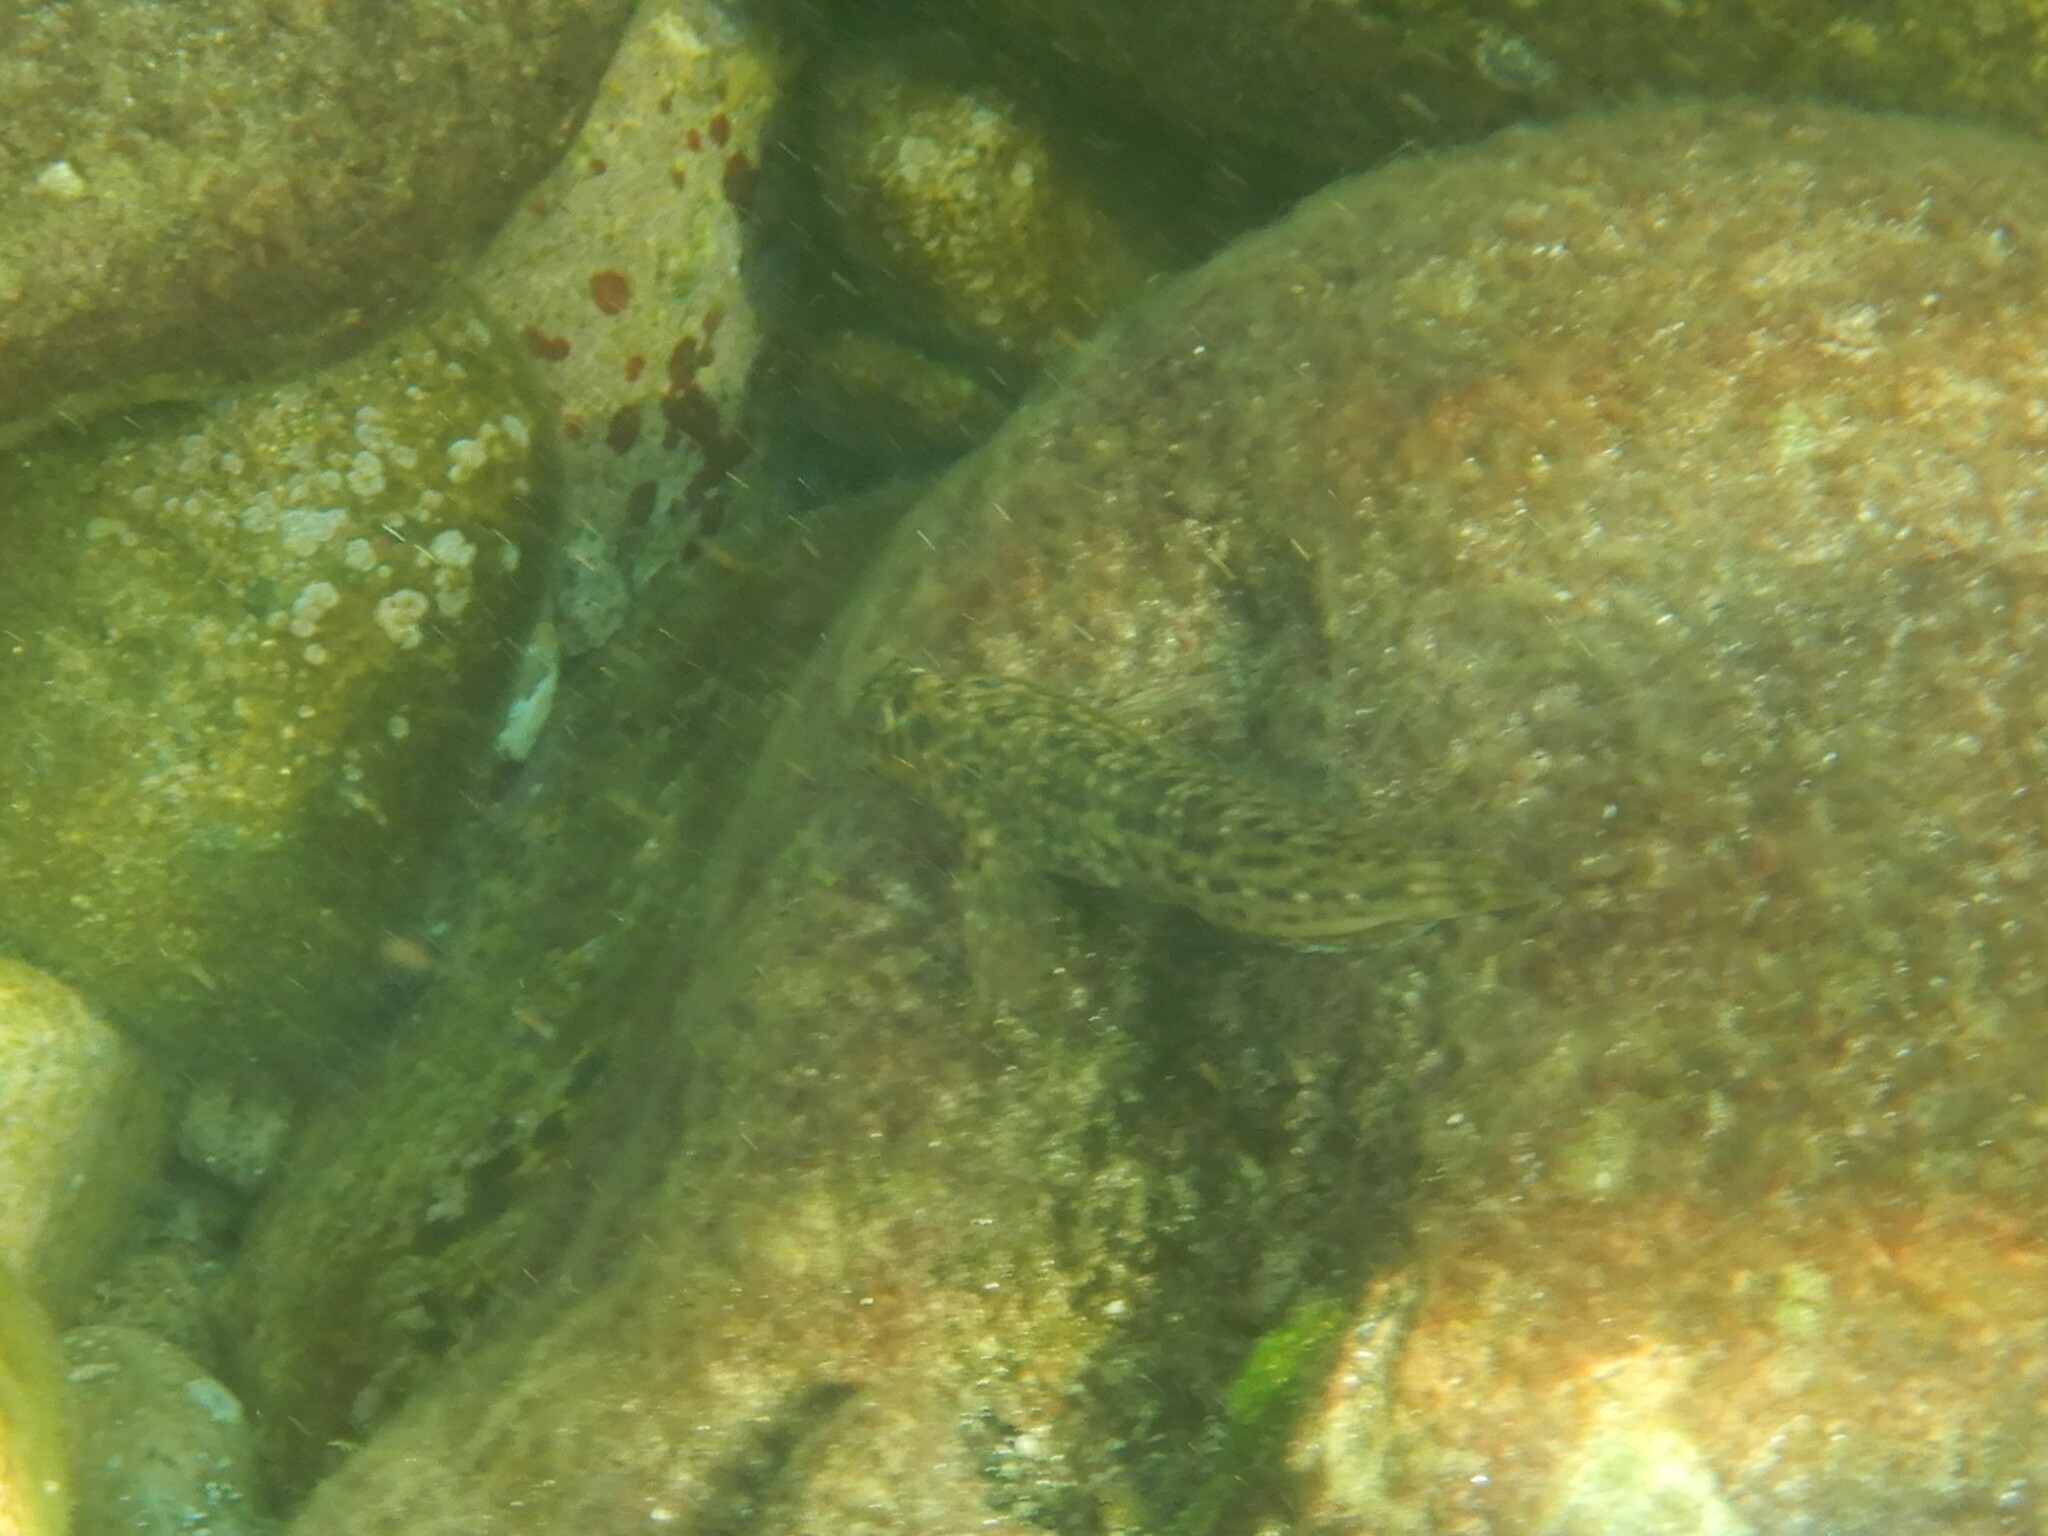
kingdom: Animalia
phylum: Chordata
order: Perciformes
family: Blenniidae
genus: Parablennius
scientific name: Parablennius sanguinolentus
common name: Black sea blenny
